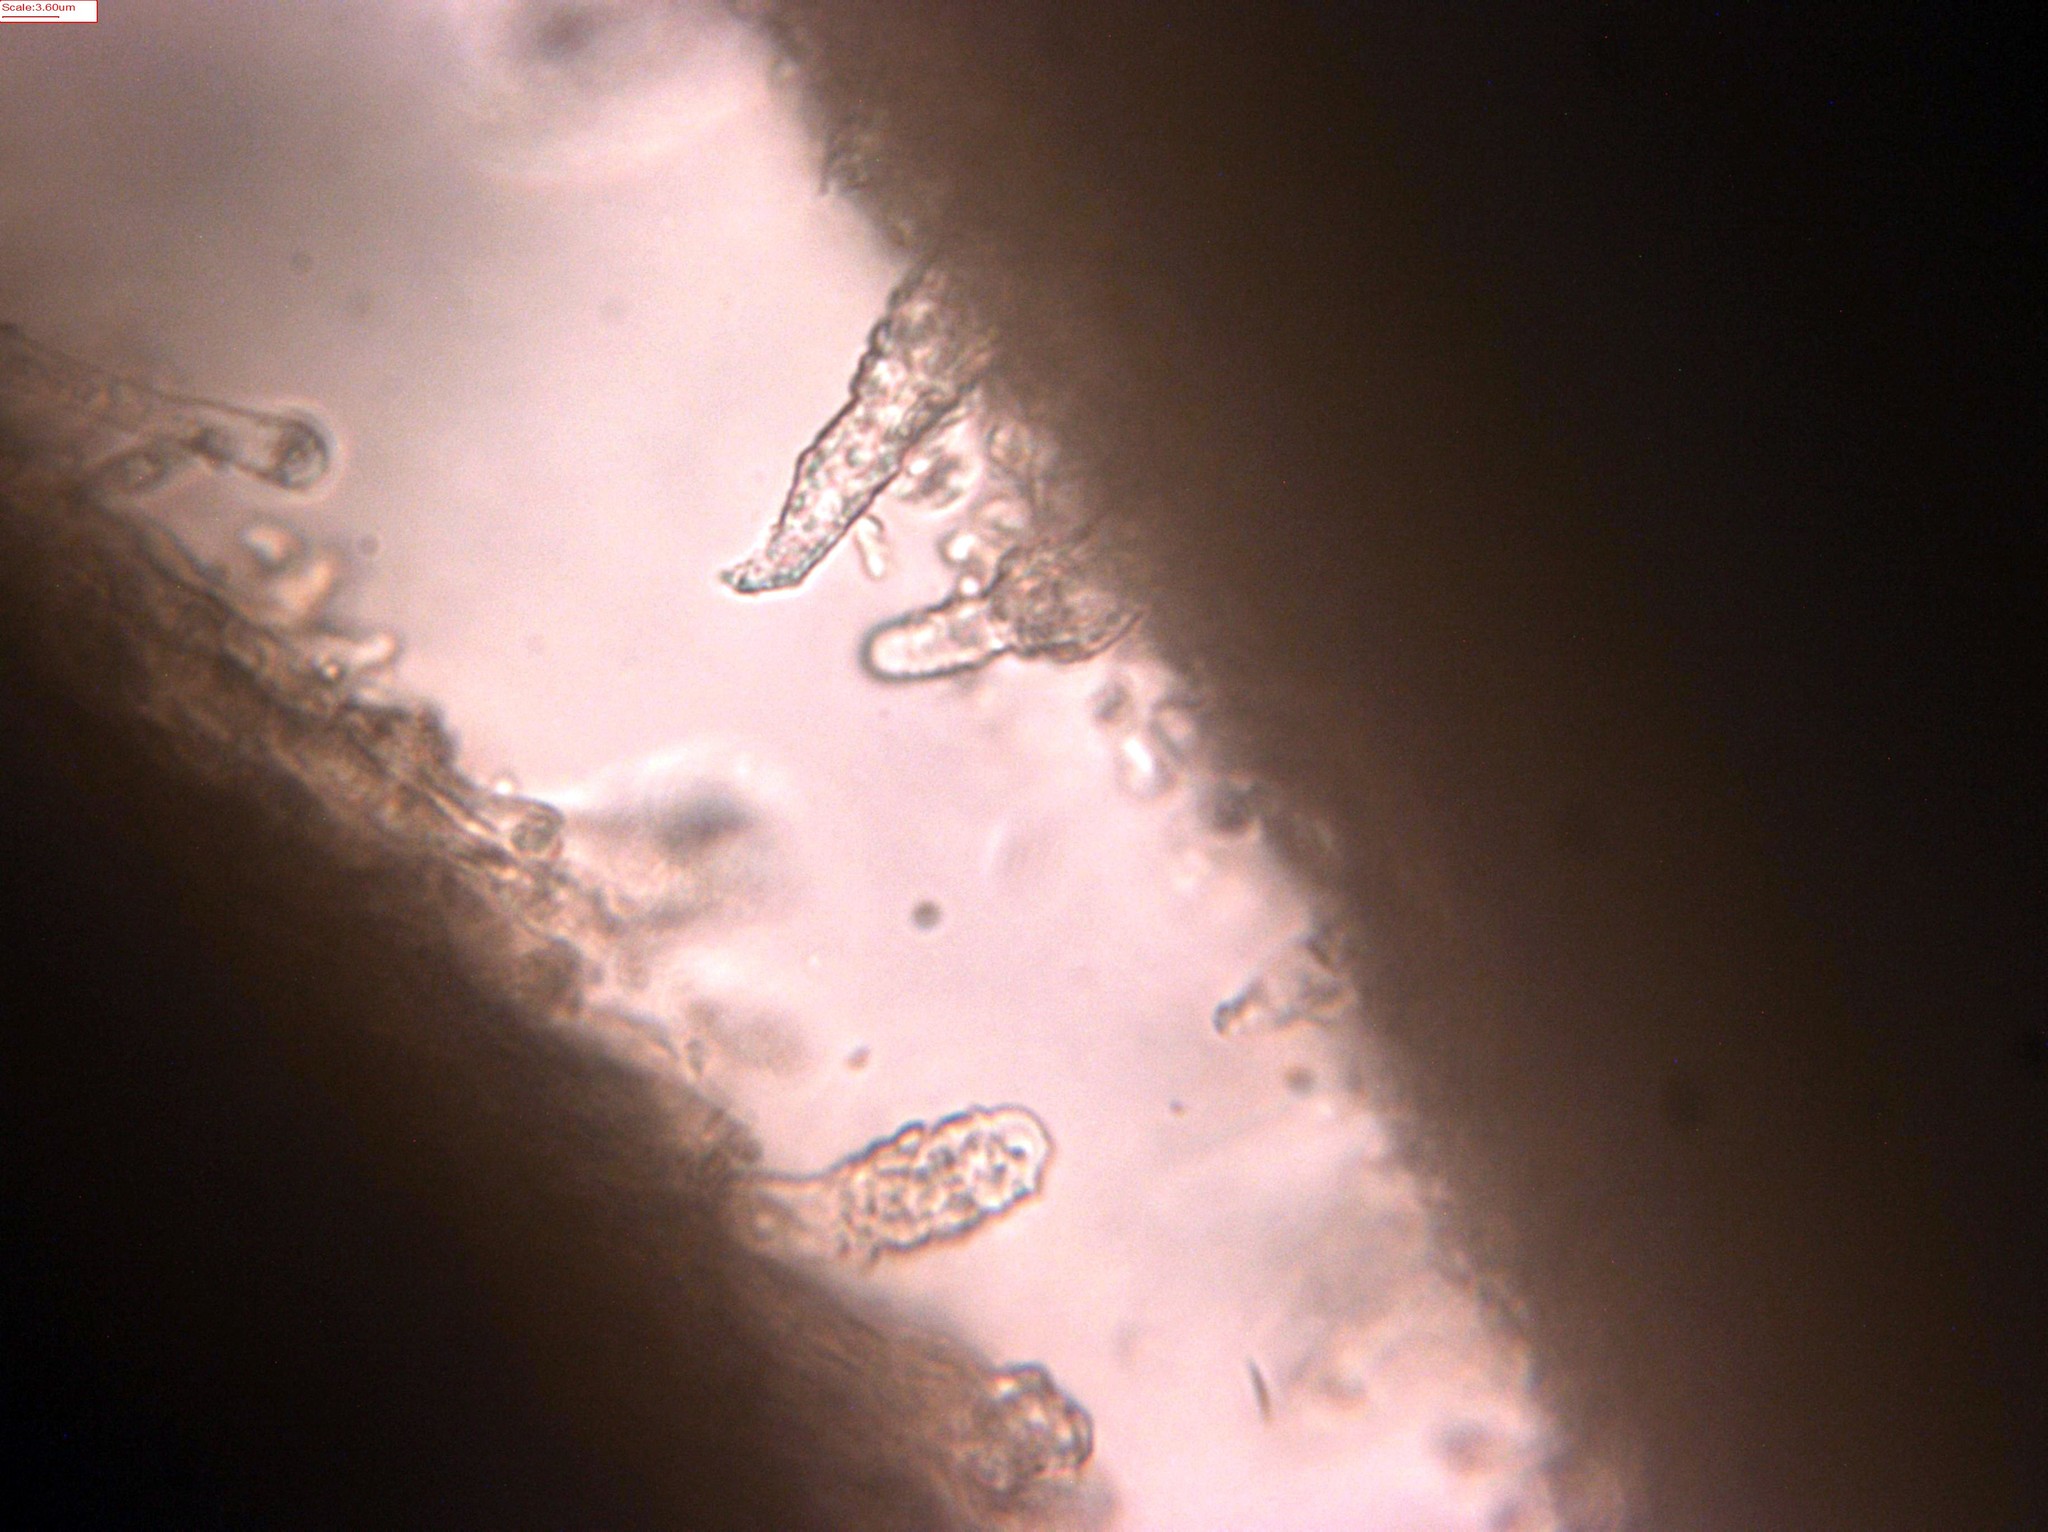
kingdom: Fungi
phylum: Basidiomycota
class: Agaricomycetes
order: Polyporales
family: Meruliaceae
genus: Mycoacia
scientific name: Mycoacia nothofagi
